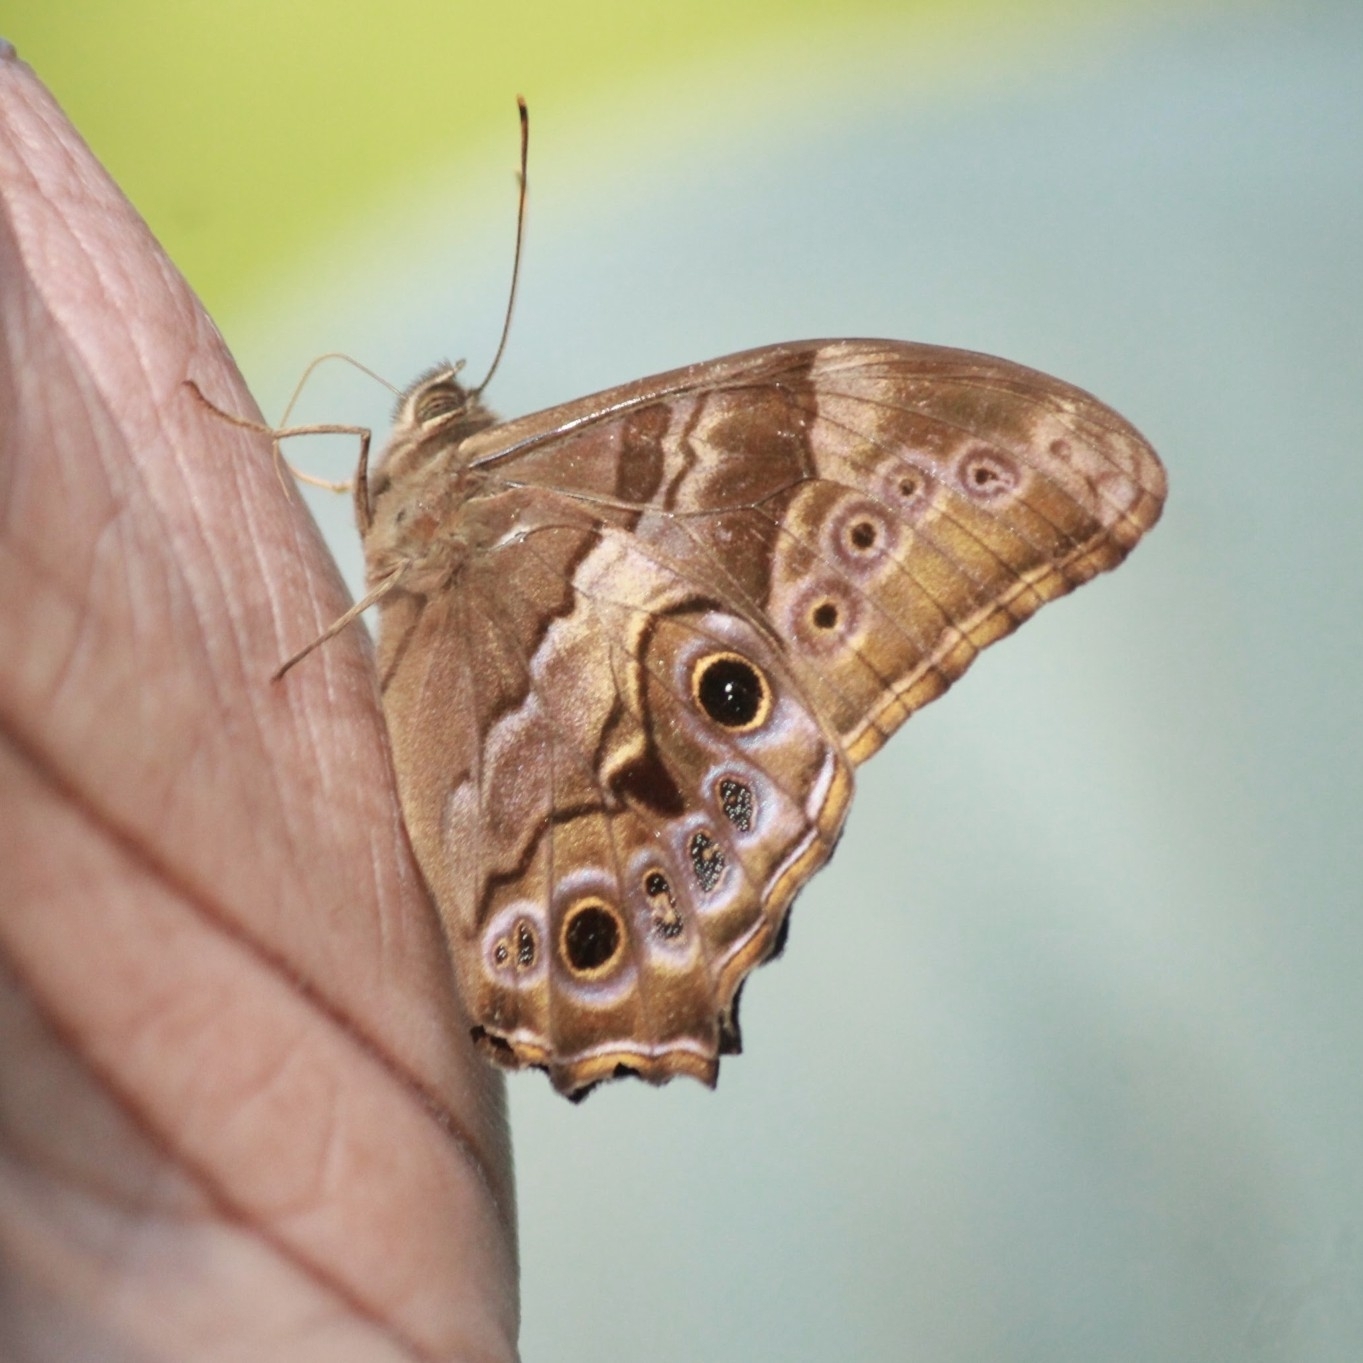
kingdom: Animalia
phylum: Arthropoda
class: Insecta
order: Lepidoptera
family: Nymphalidae
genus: Lethe
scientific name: Lethe drypetis
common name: Tamil treebrown
